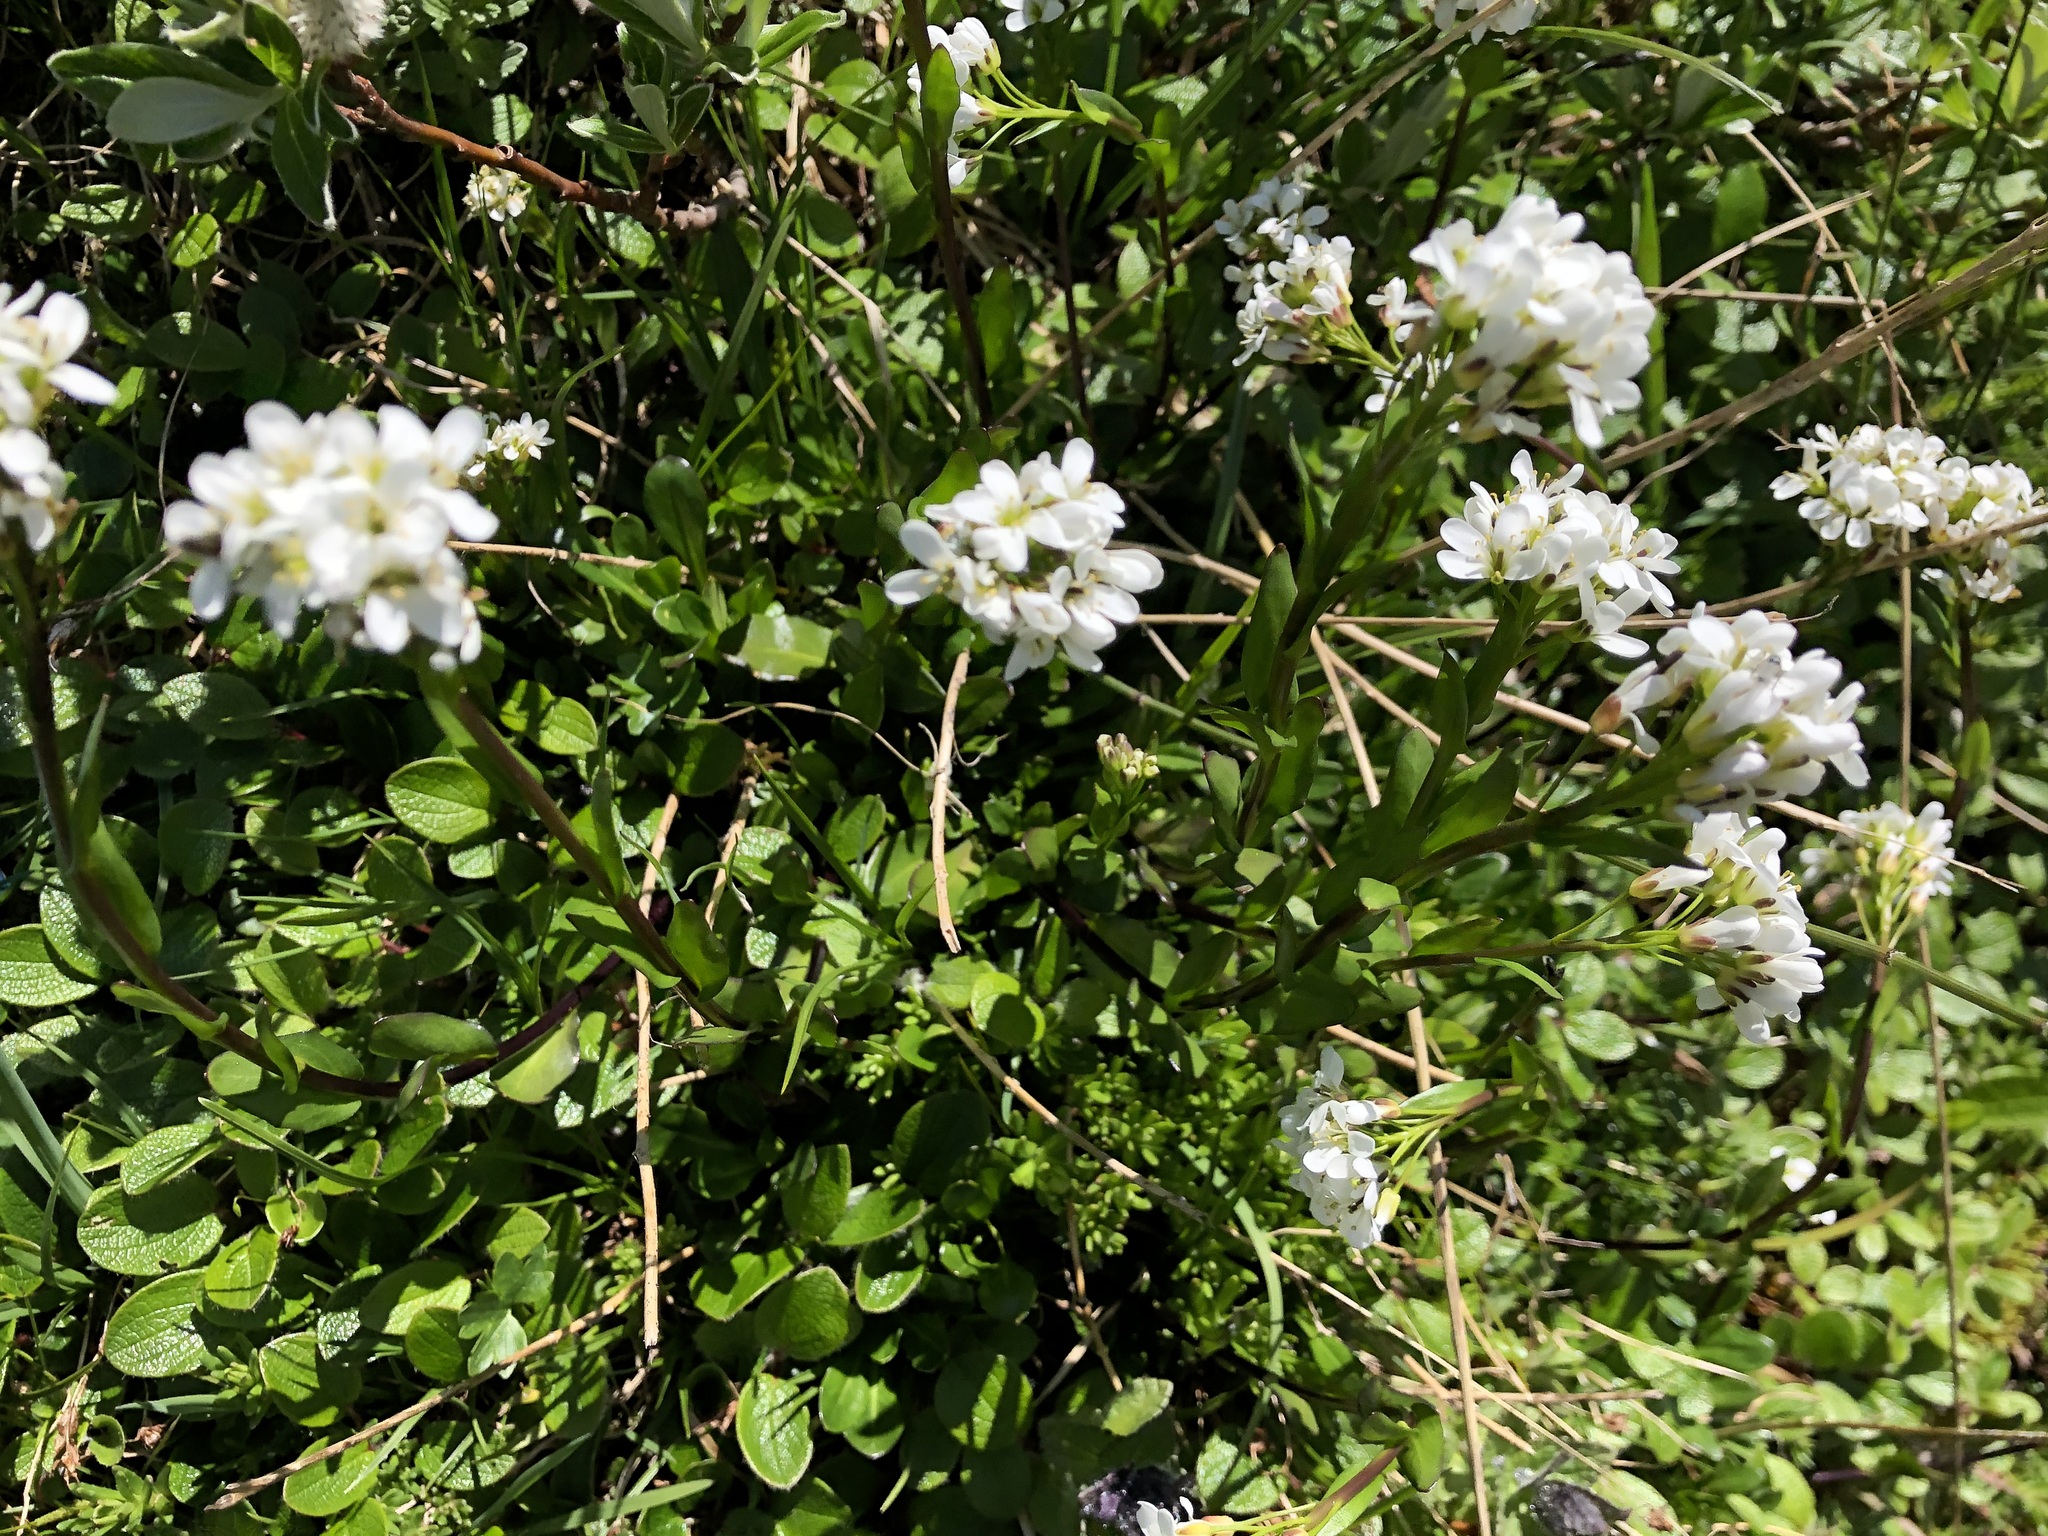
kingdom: Plantae
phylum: Tracheophyta
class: Magnoliopsida
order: Brassicales
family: Brassicaceae
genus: Arabis
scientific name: Arabis soyeri
